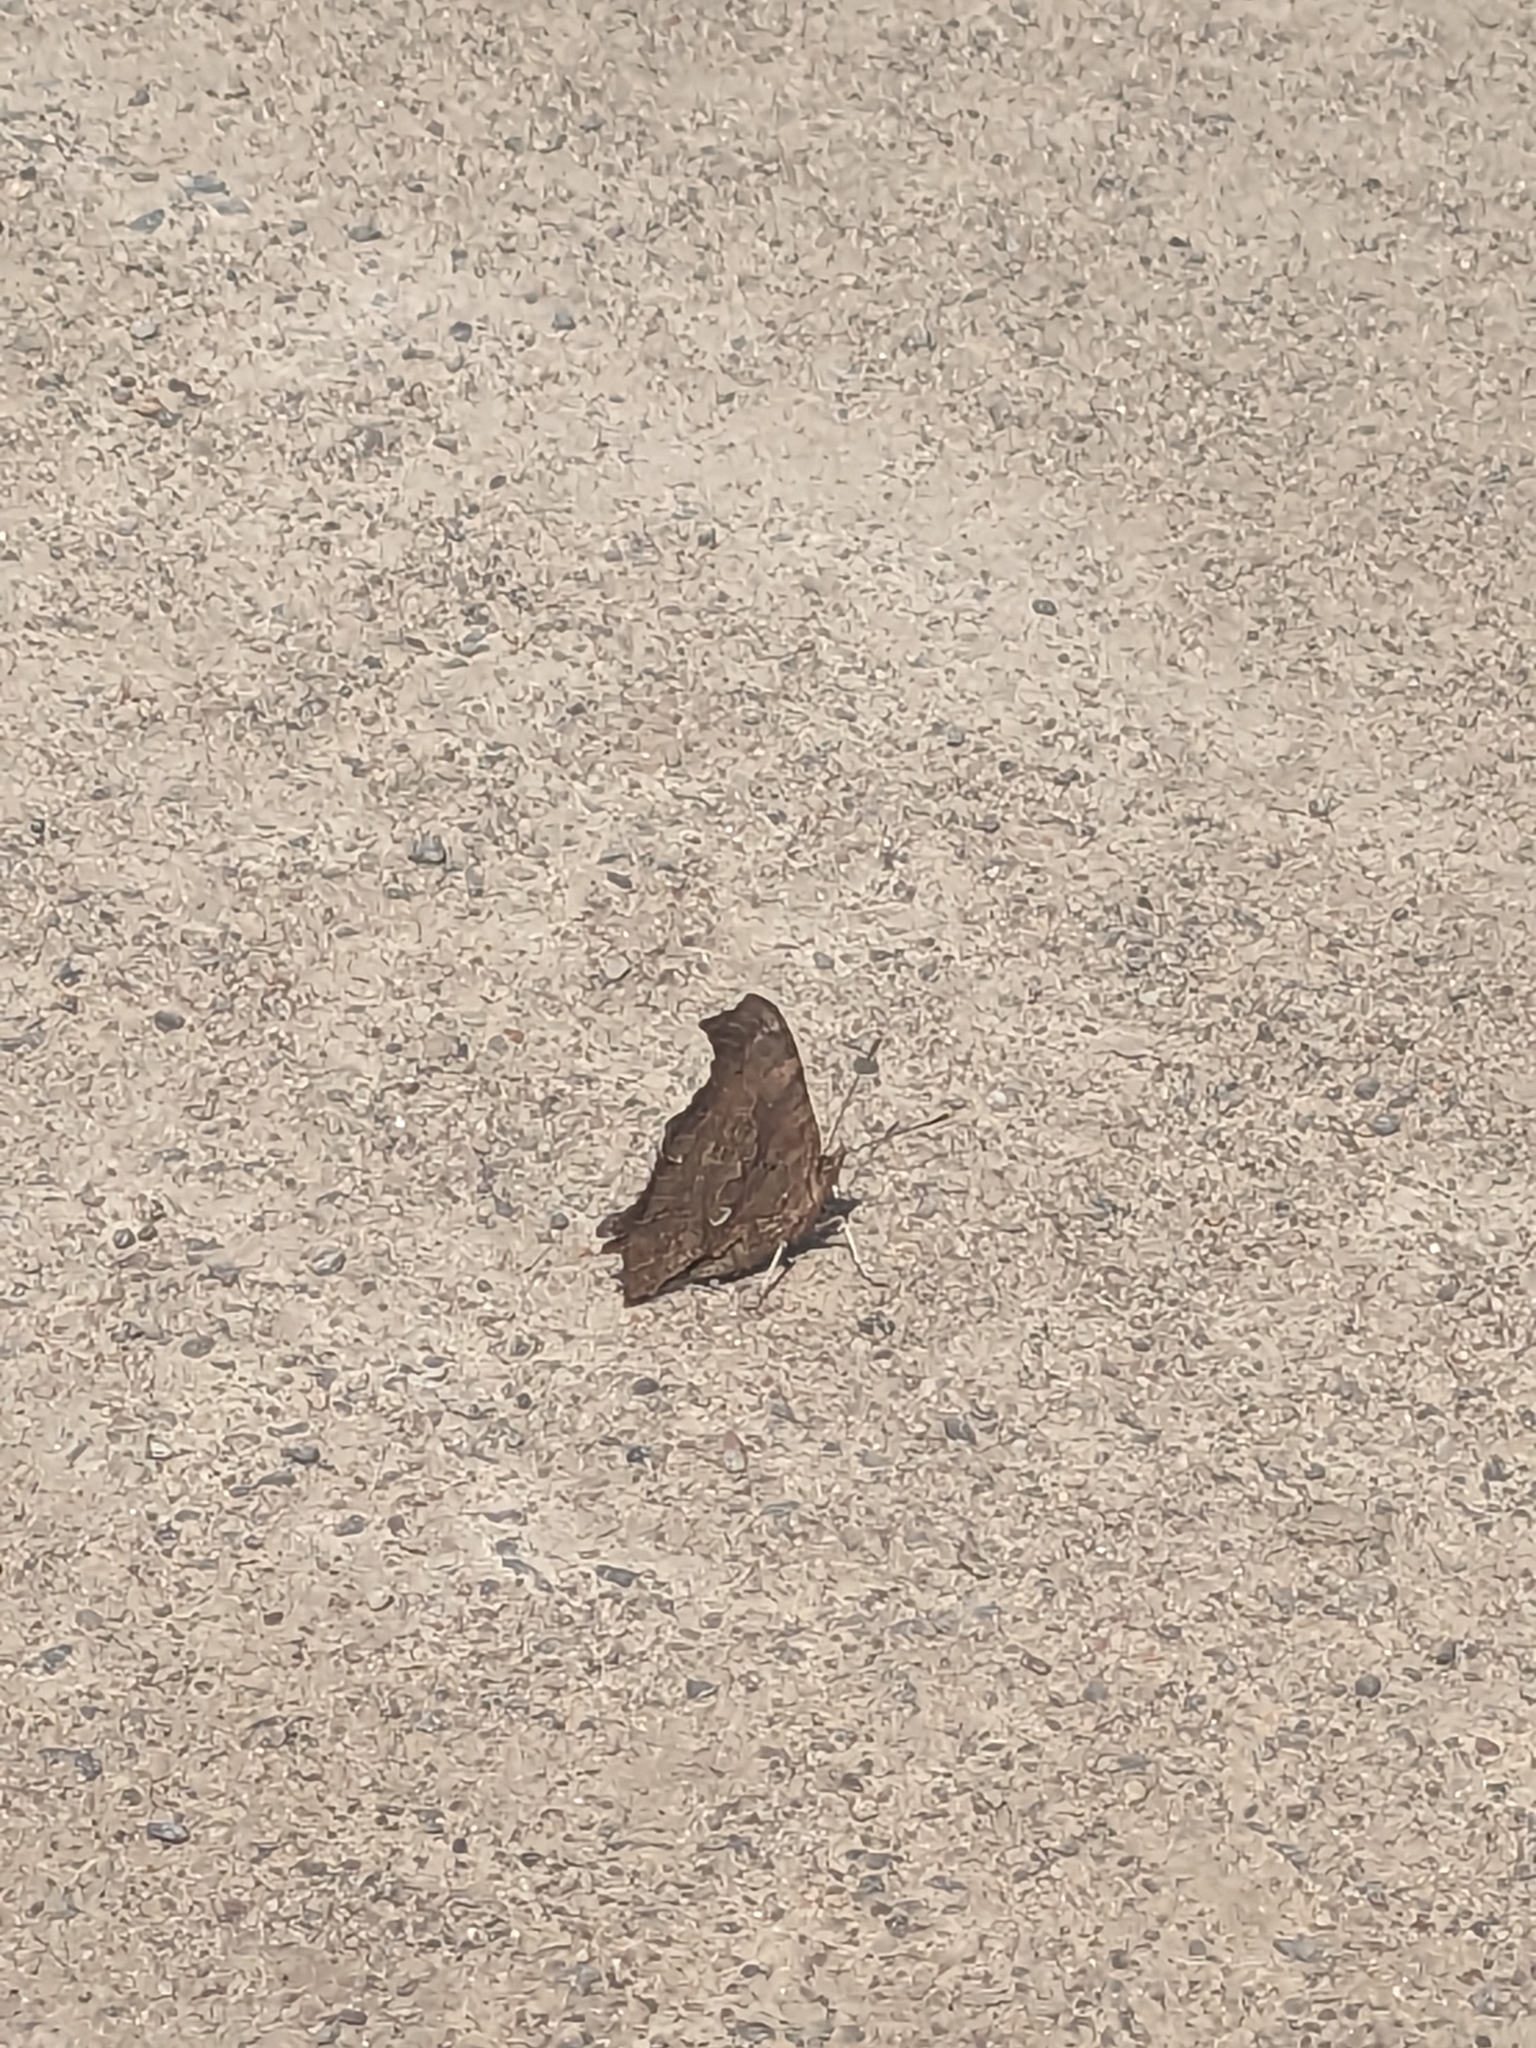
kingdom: Animalia
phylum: Arthropoda
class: Insecta
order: Lepidoptera
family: Nymphalidae
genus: Polygonia
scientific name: Polygonia comma
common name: Eastern comma
